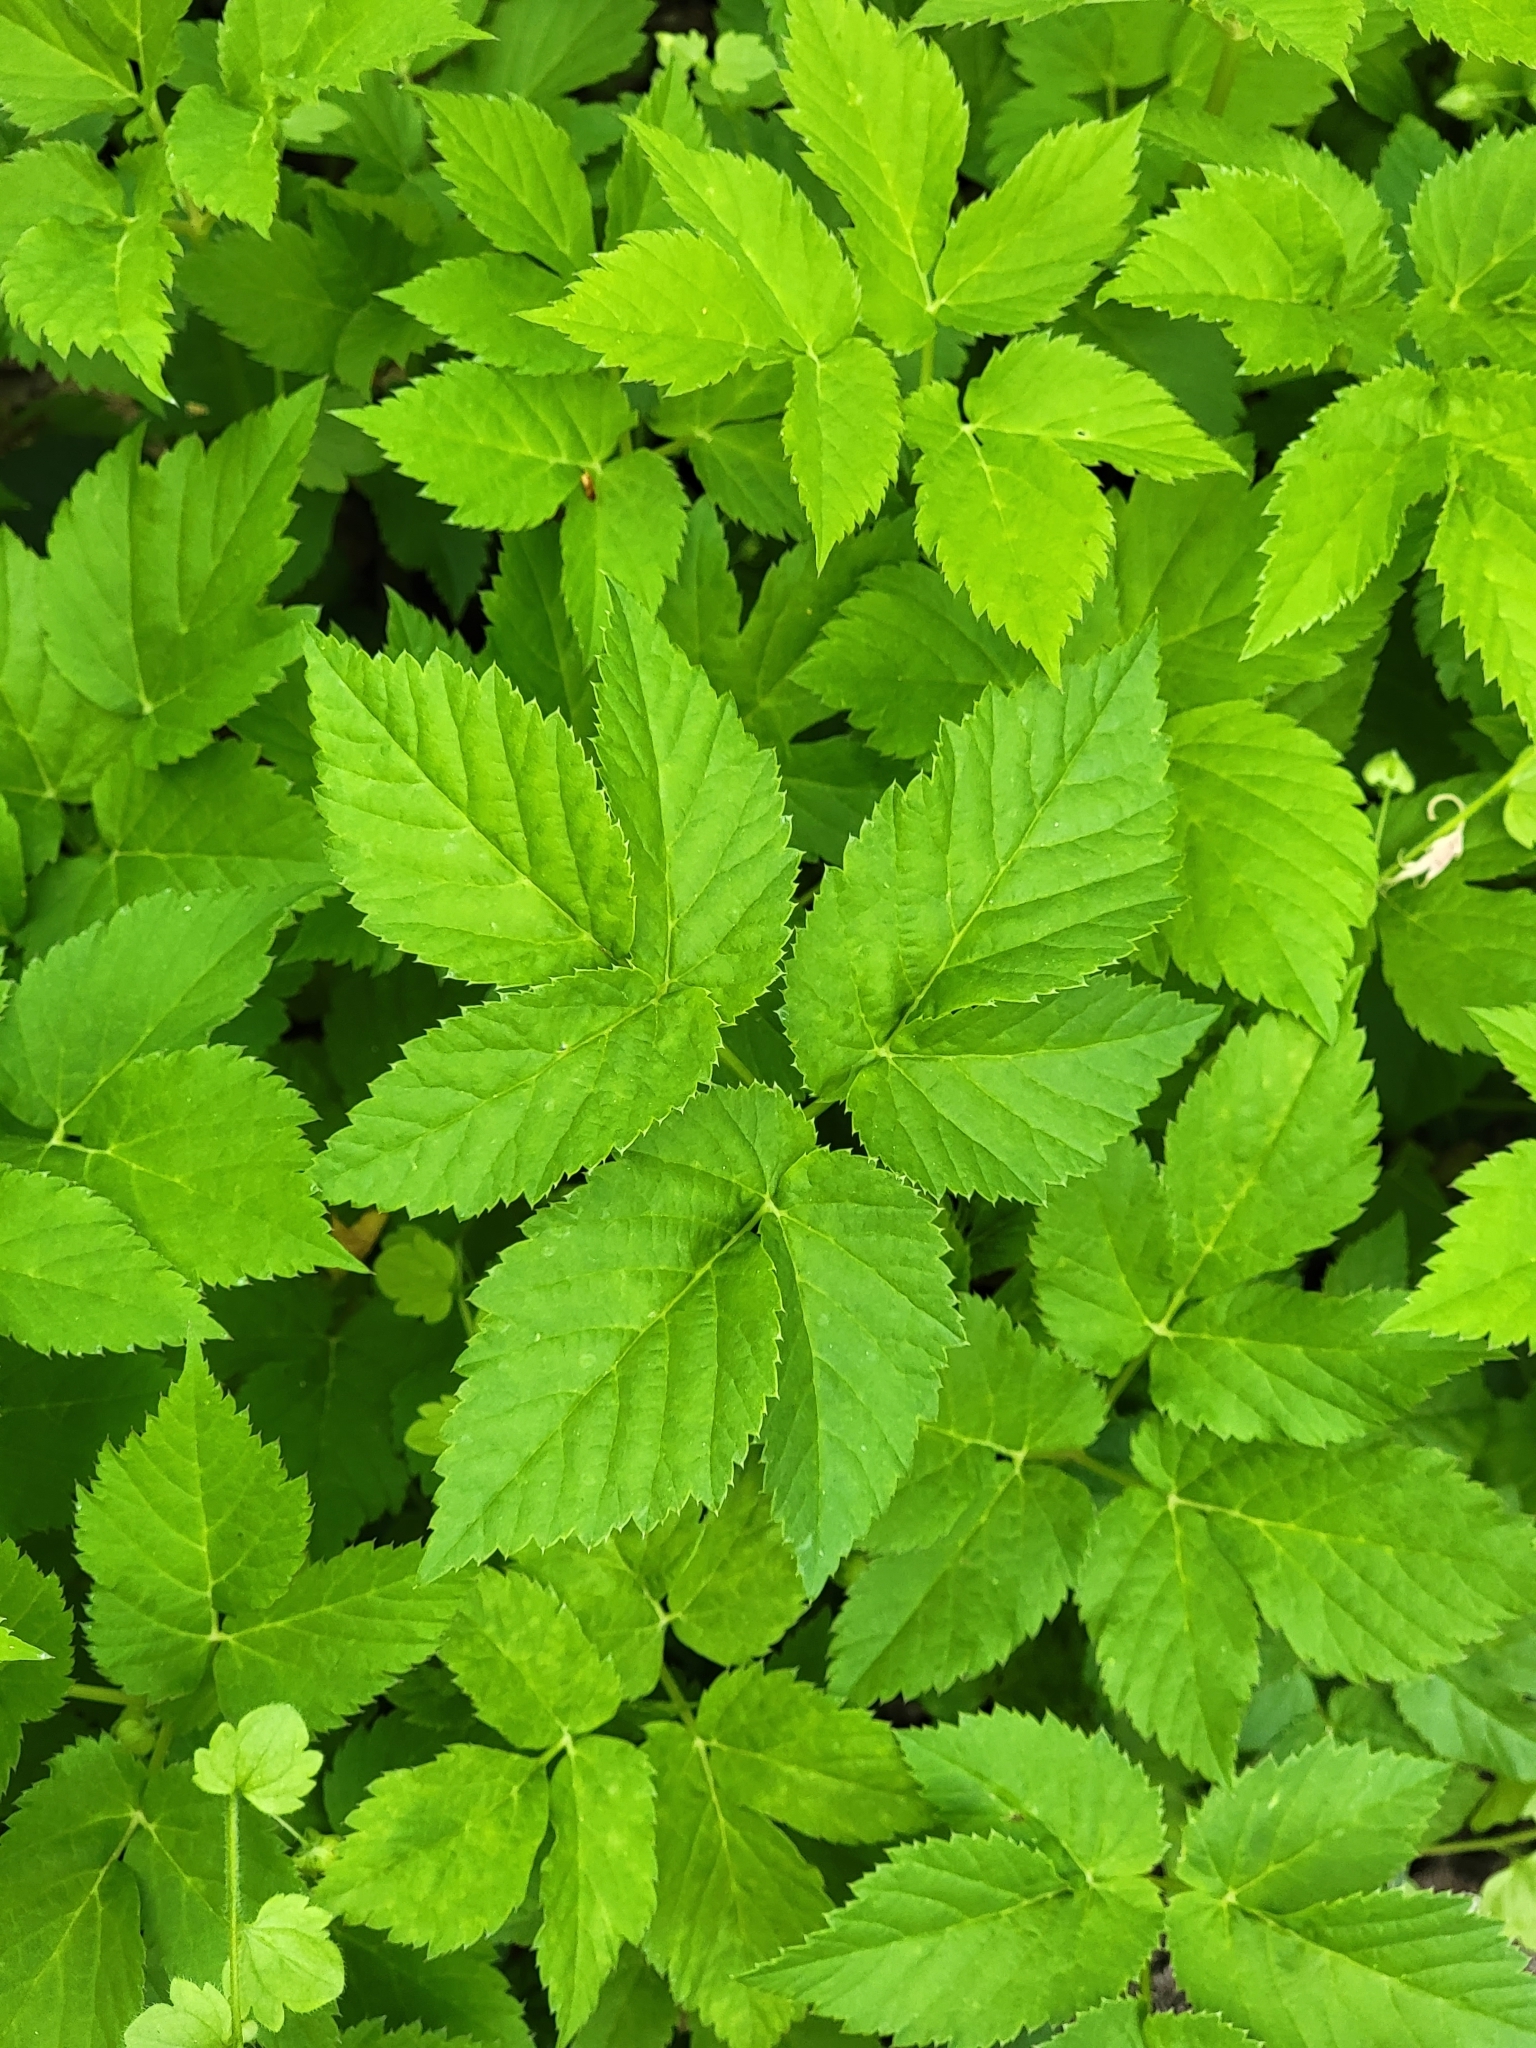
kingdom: Plantae
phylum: Tracheophyta
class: Magnoliopsida
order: Apiales
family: Apiaceae
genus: Aegopodium
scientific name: Aegopodium podagraria
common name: Ground-elder
